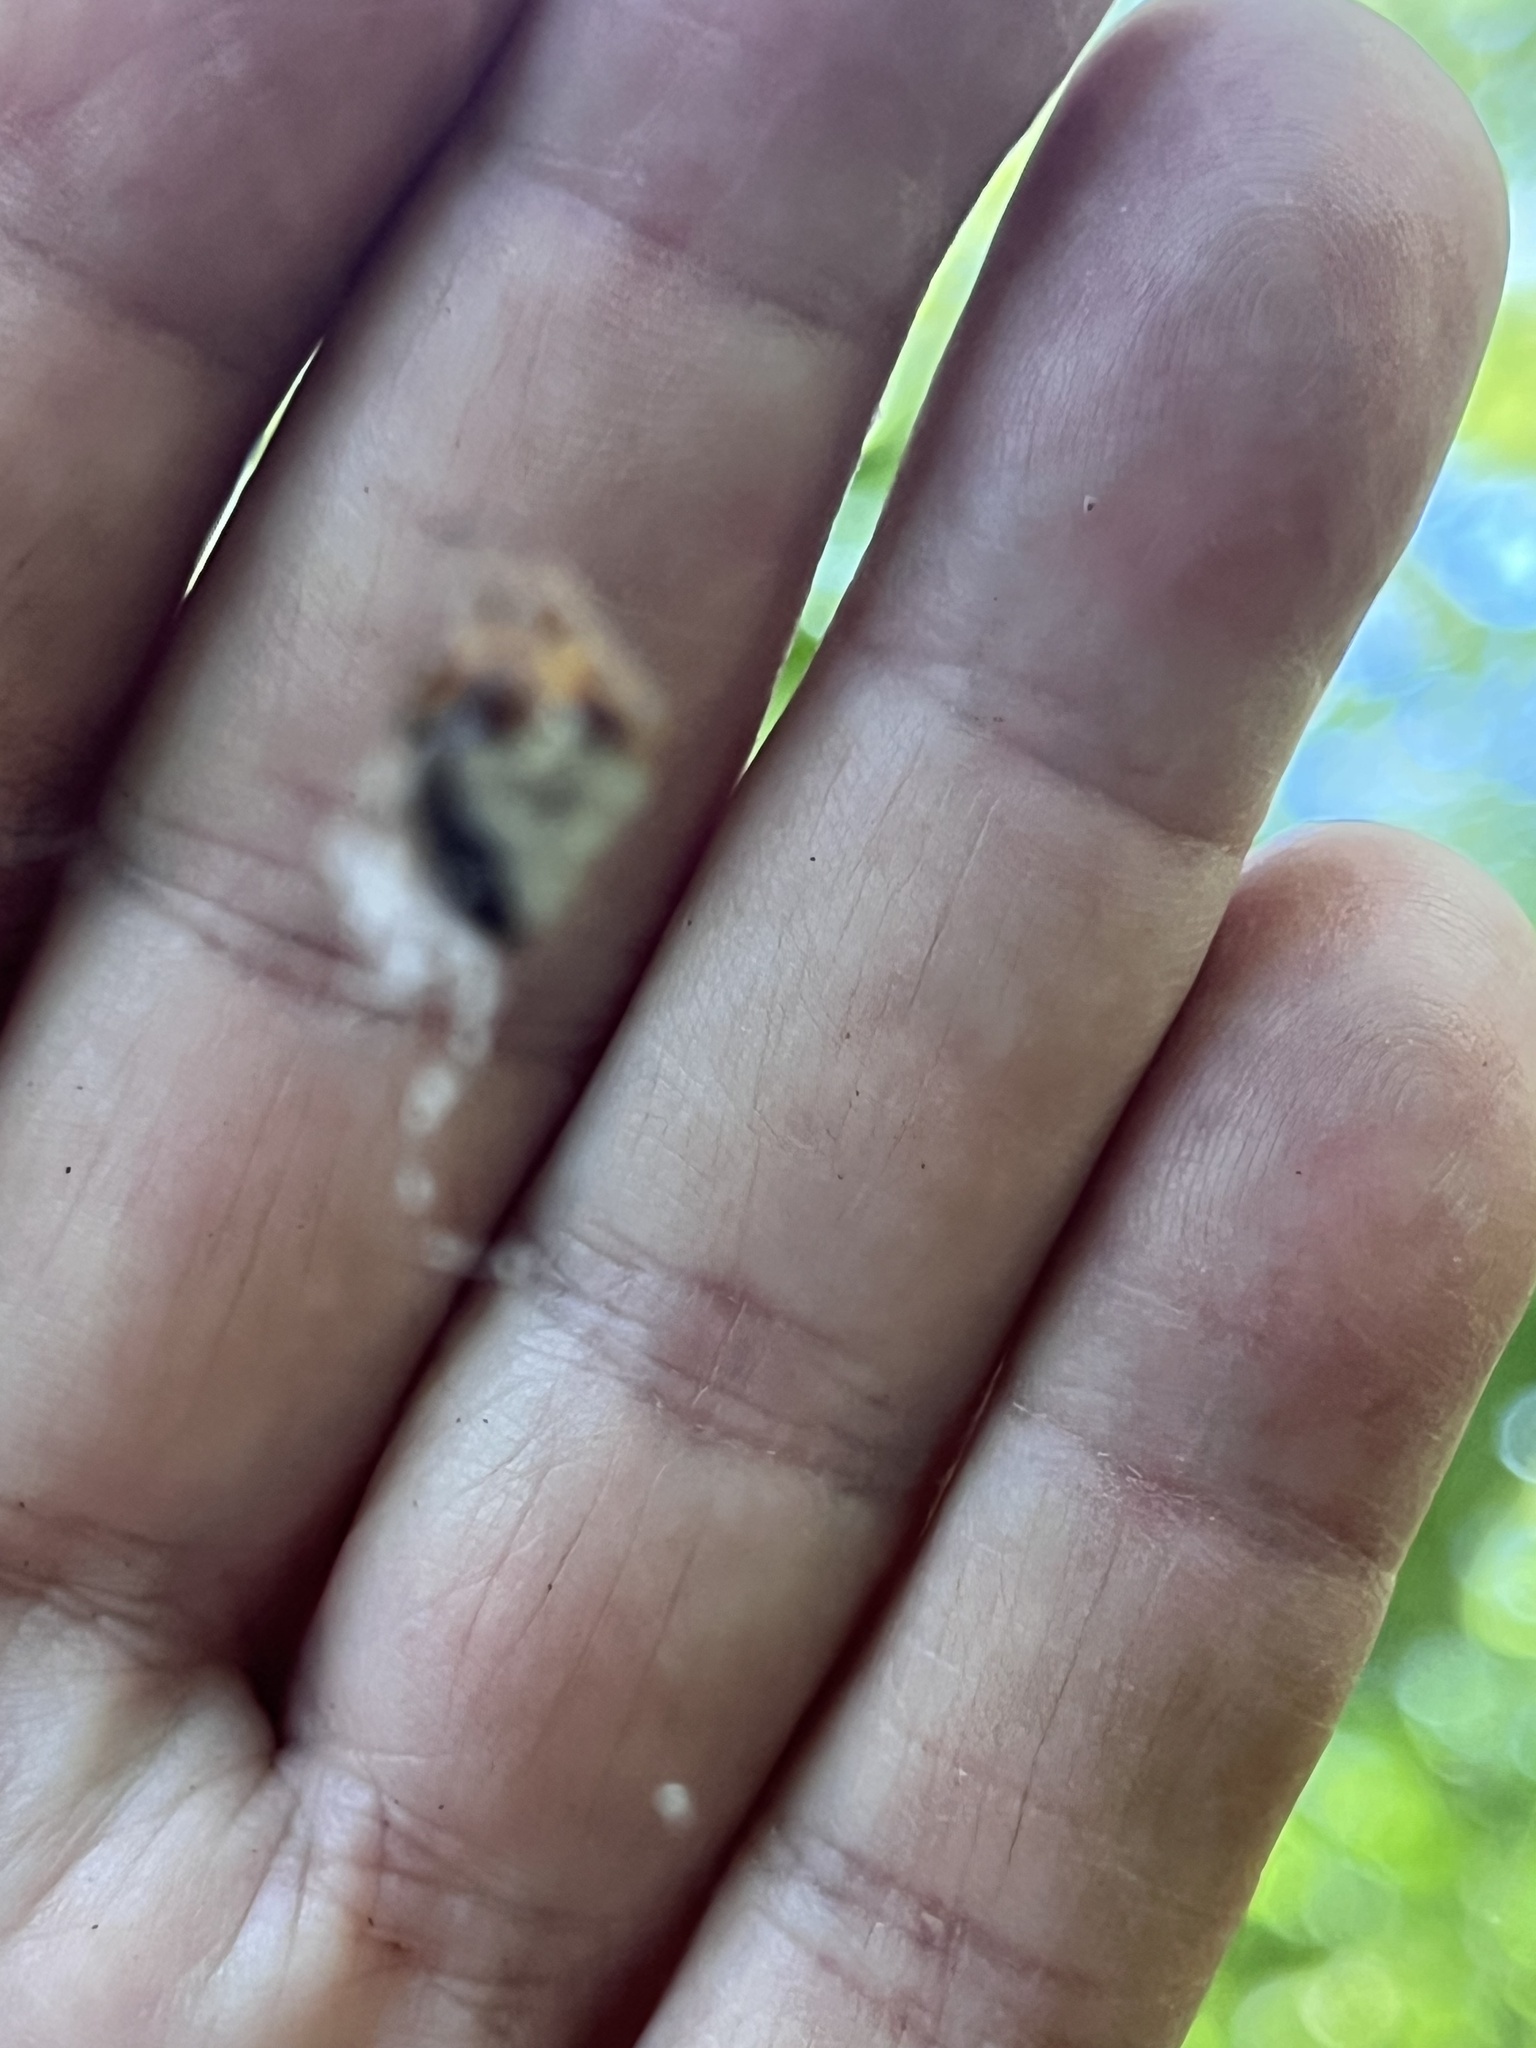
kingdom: Animalia
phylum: Arthropoda
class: Arachnida
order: Araneae
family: Araneidae
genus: Verrucosa
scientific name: Verrucosa arenata
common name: Orb weavers
